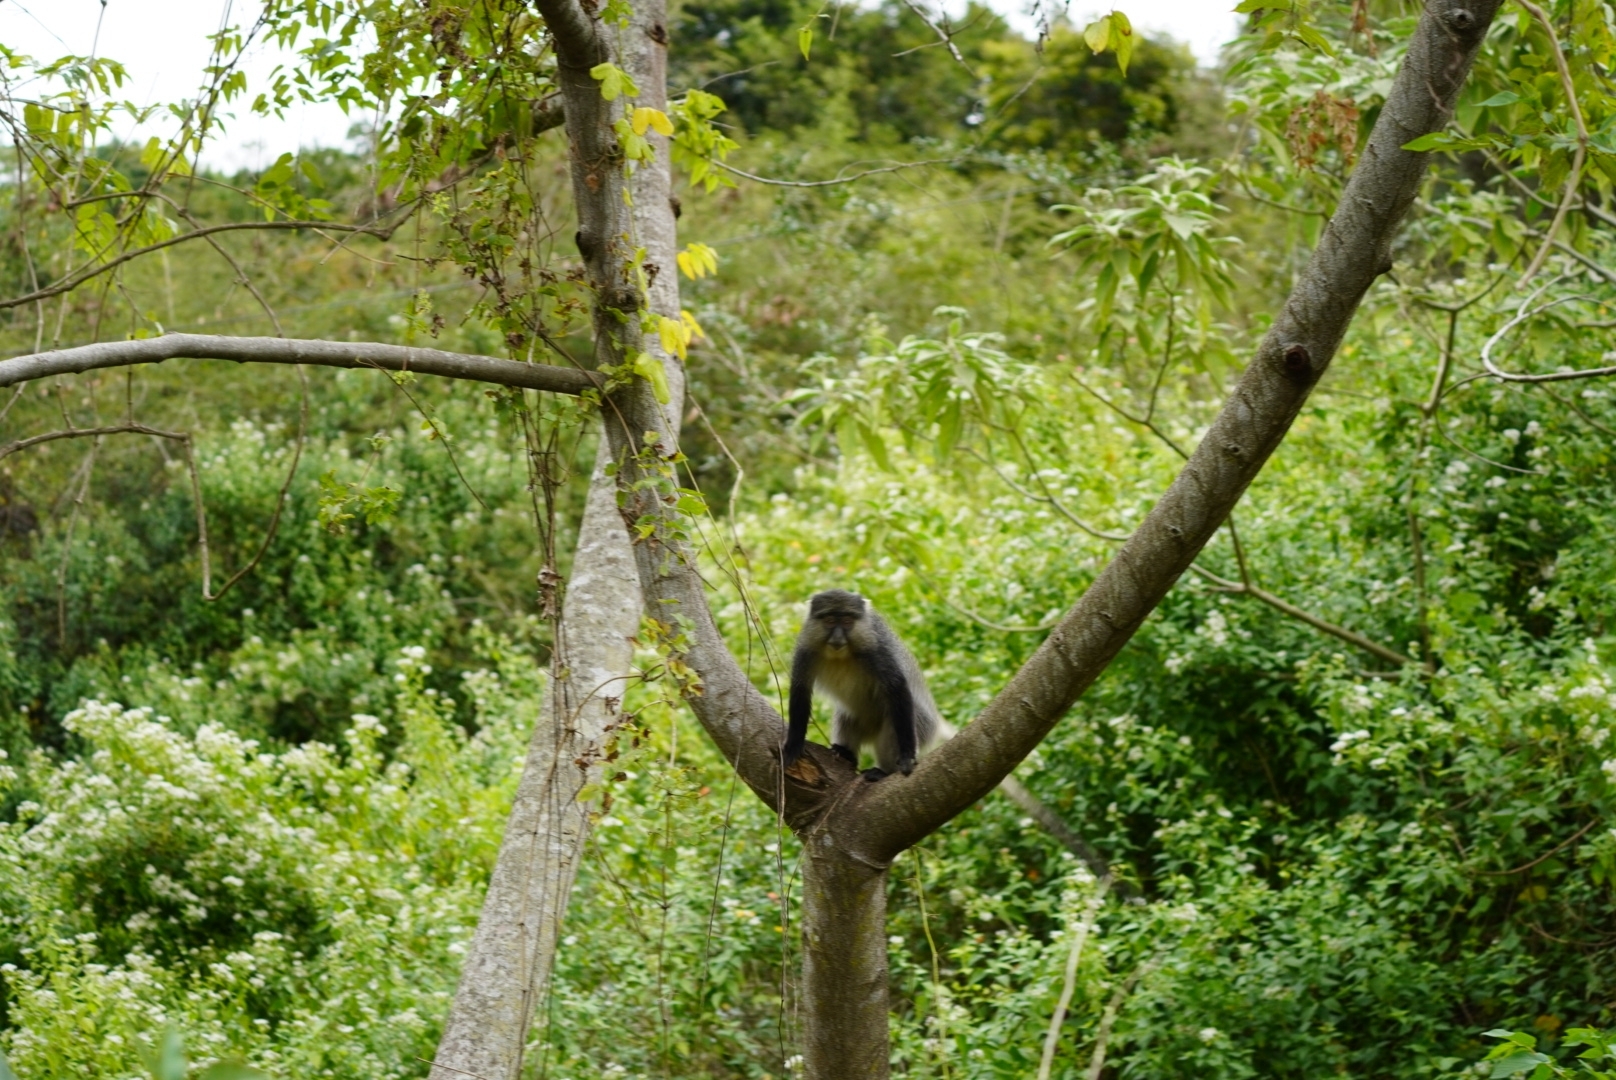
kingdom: Animalia
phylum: Chordata
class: Mammalia
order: Primates
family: Cercopithecidae
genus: Cercopithecus
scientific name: Cercopithecus mitis
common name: Blue monkey
